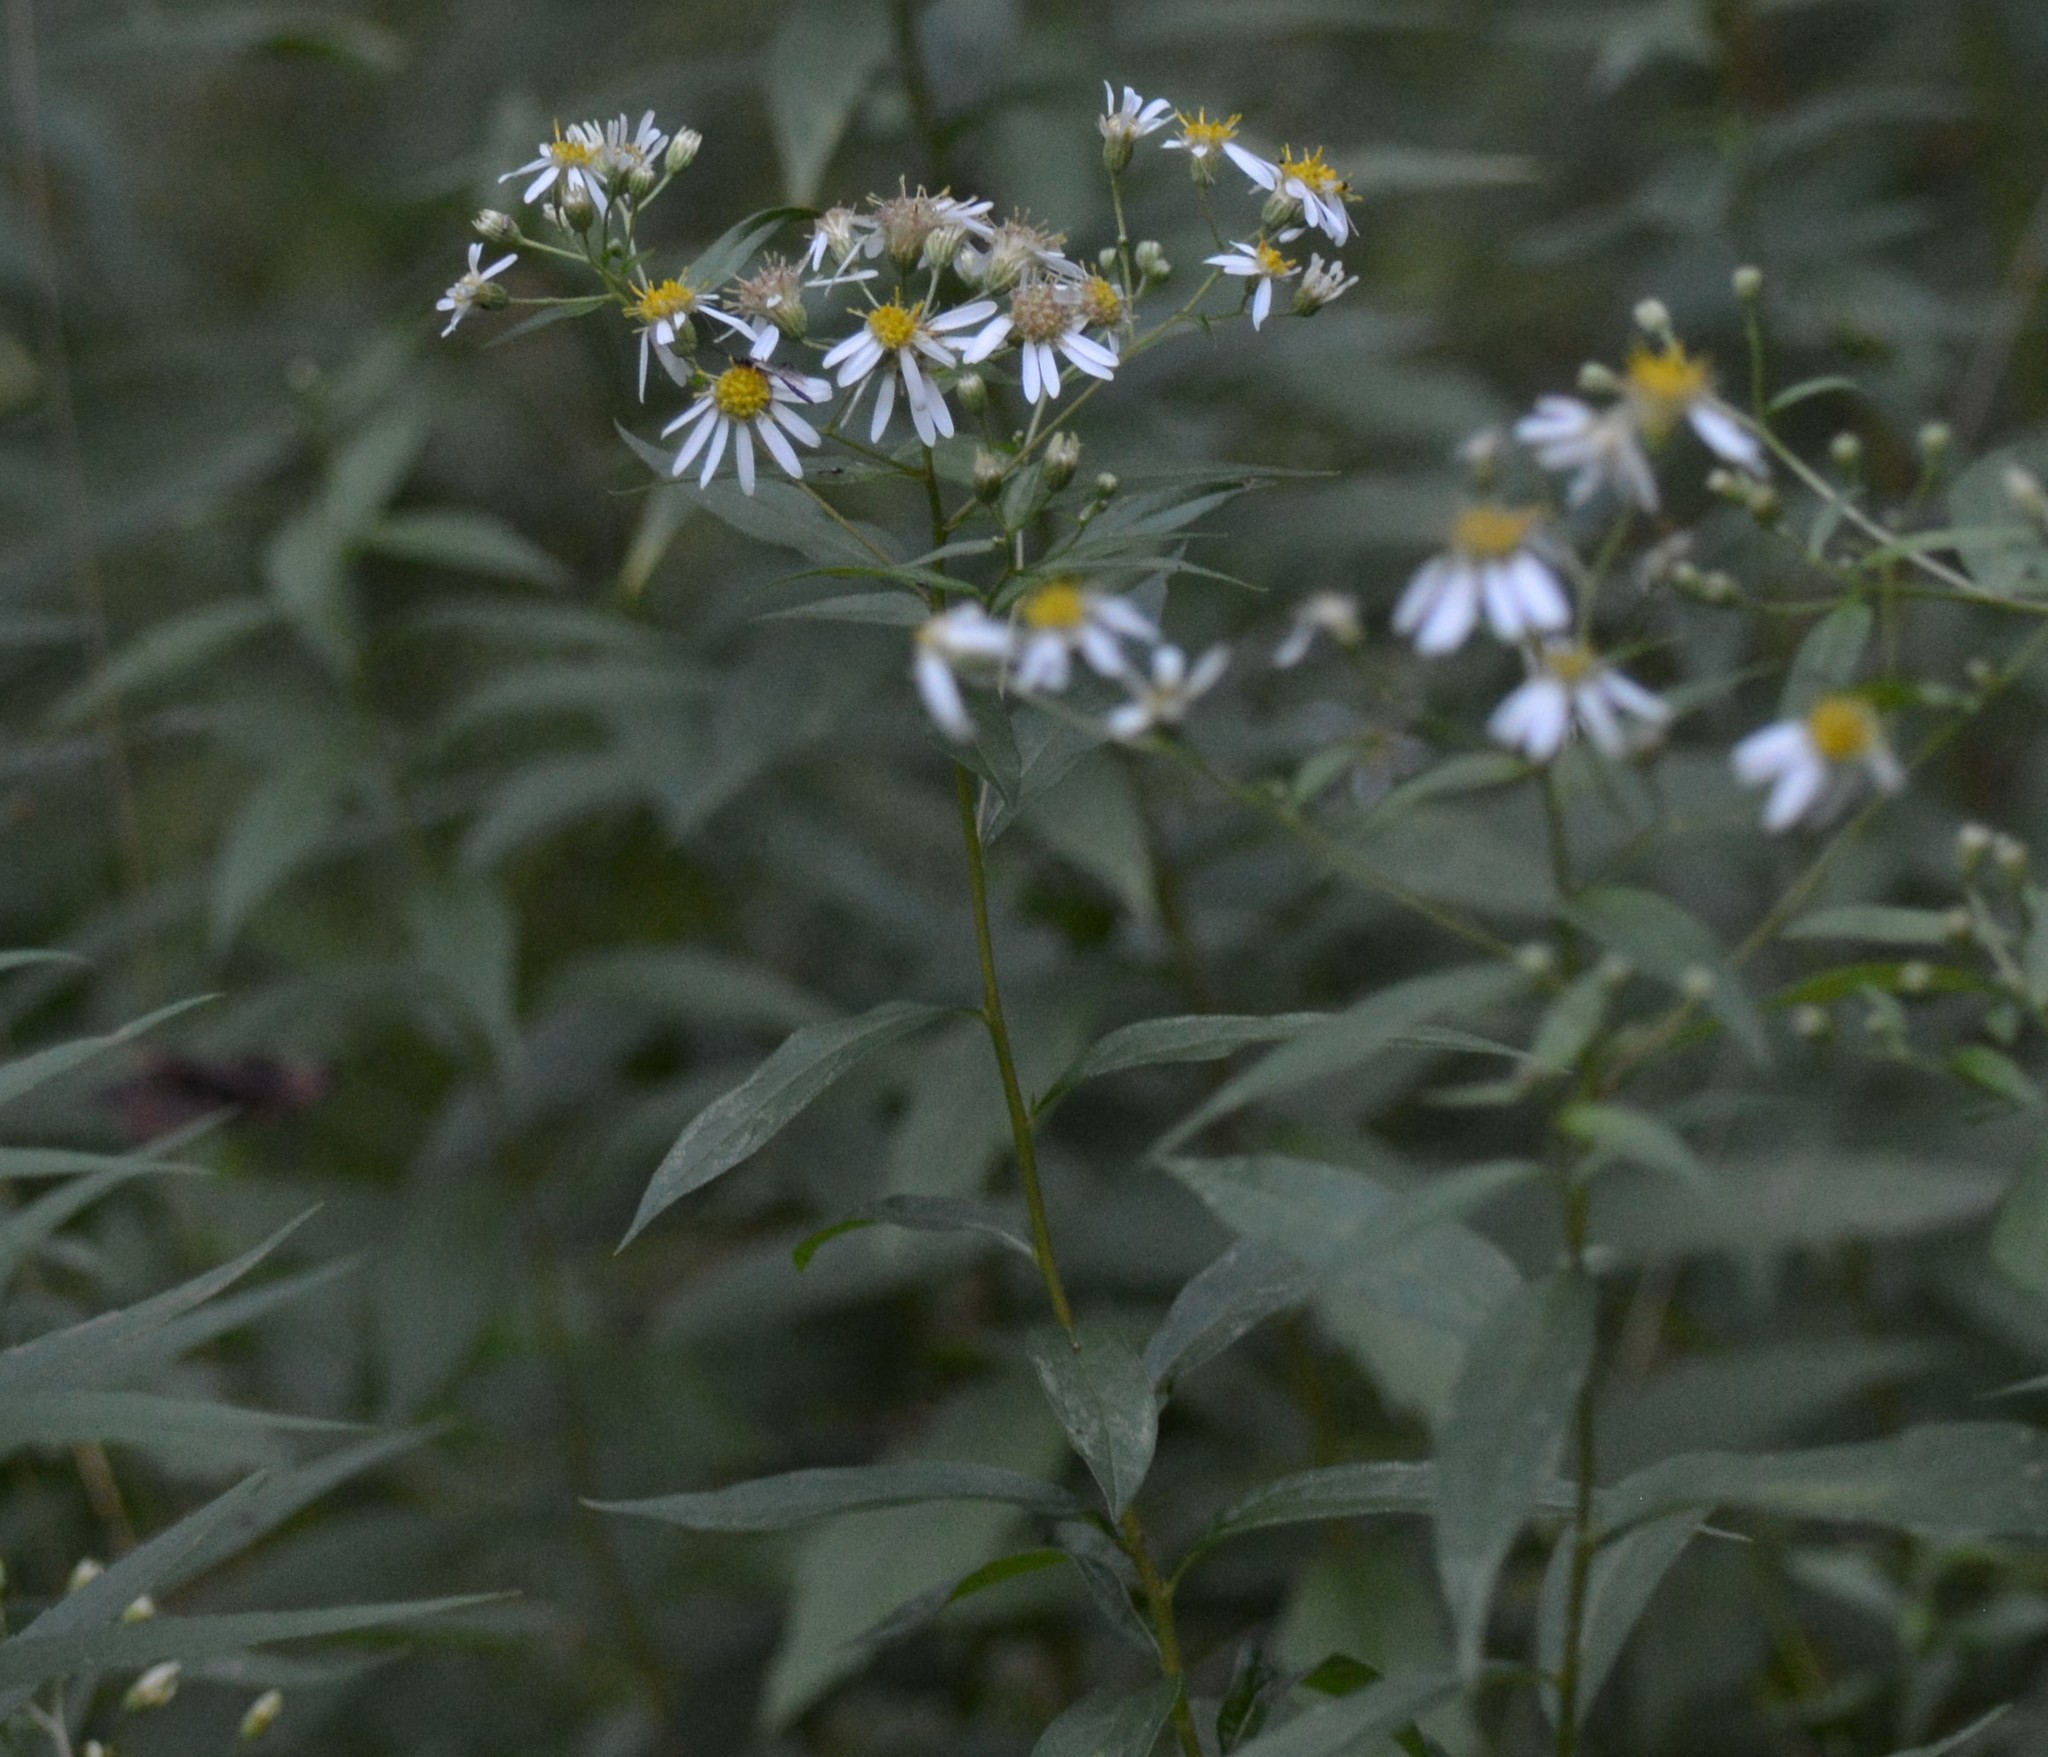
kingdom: Plantae
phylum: Tracheophyta
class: Magnoliopsida
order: Asterales
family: Asteraceae
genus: Doellingeria
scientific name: Doellingeria umbellata
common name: Flat-top white aster
